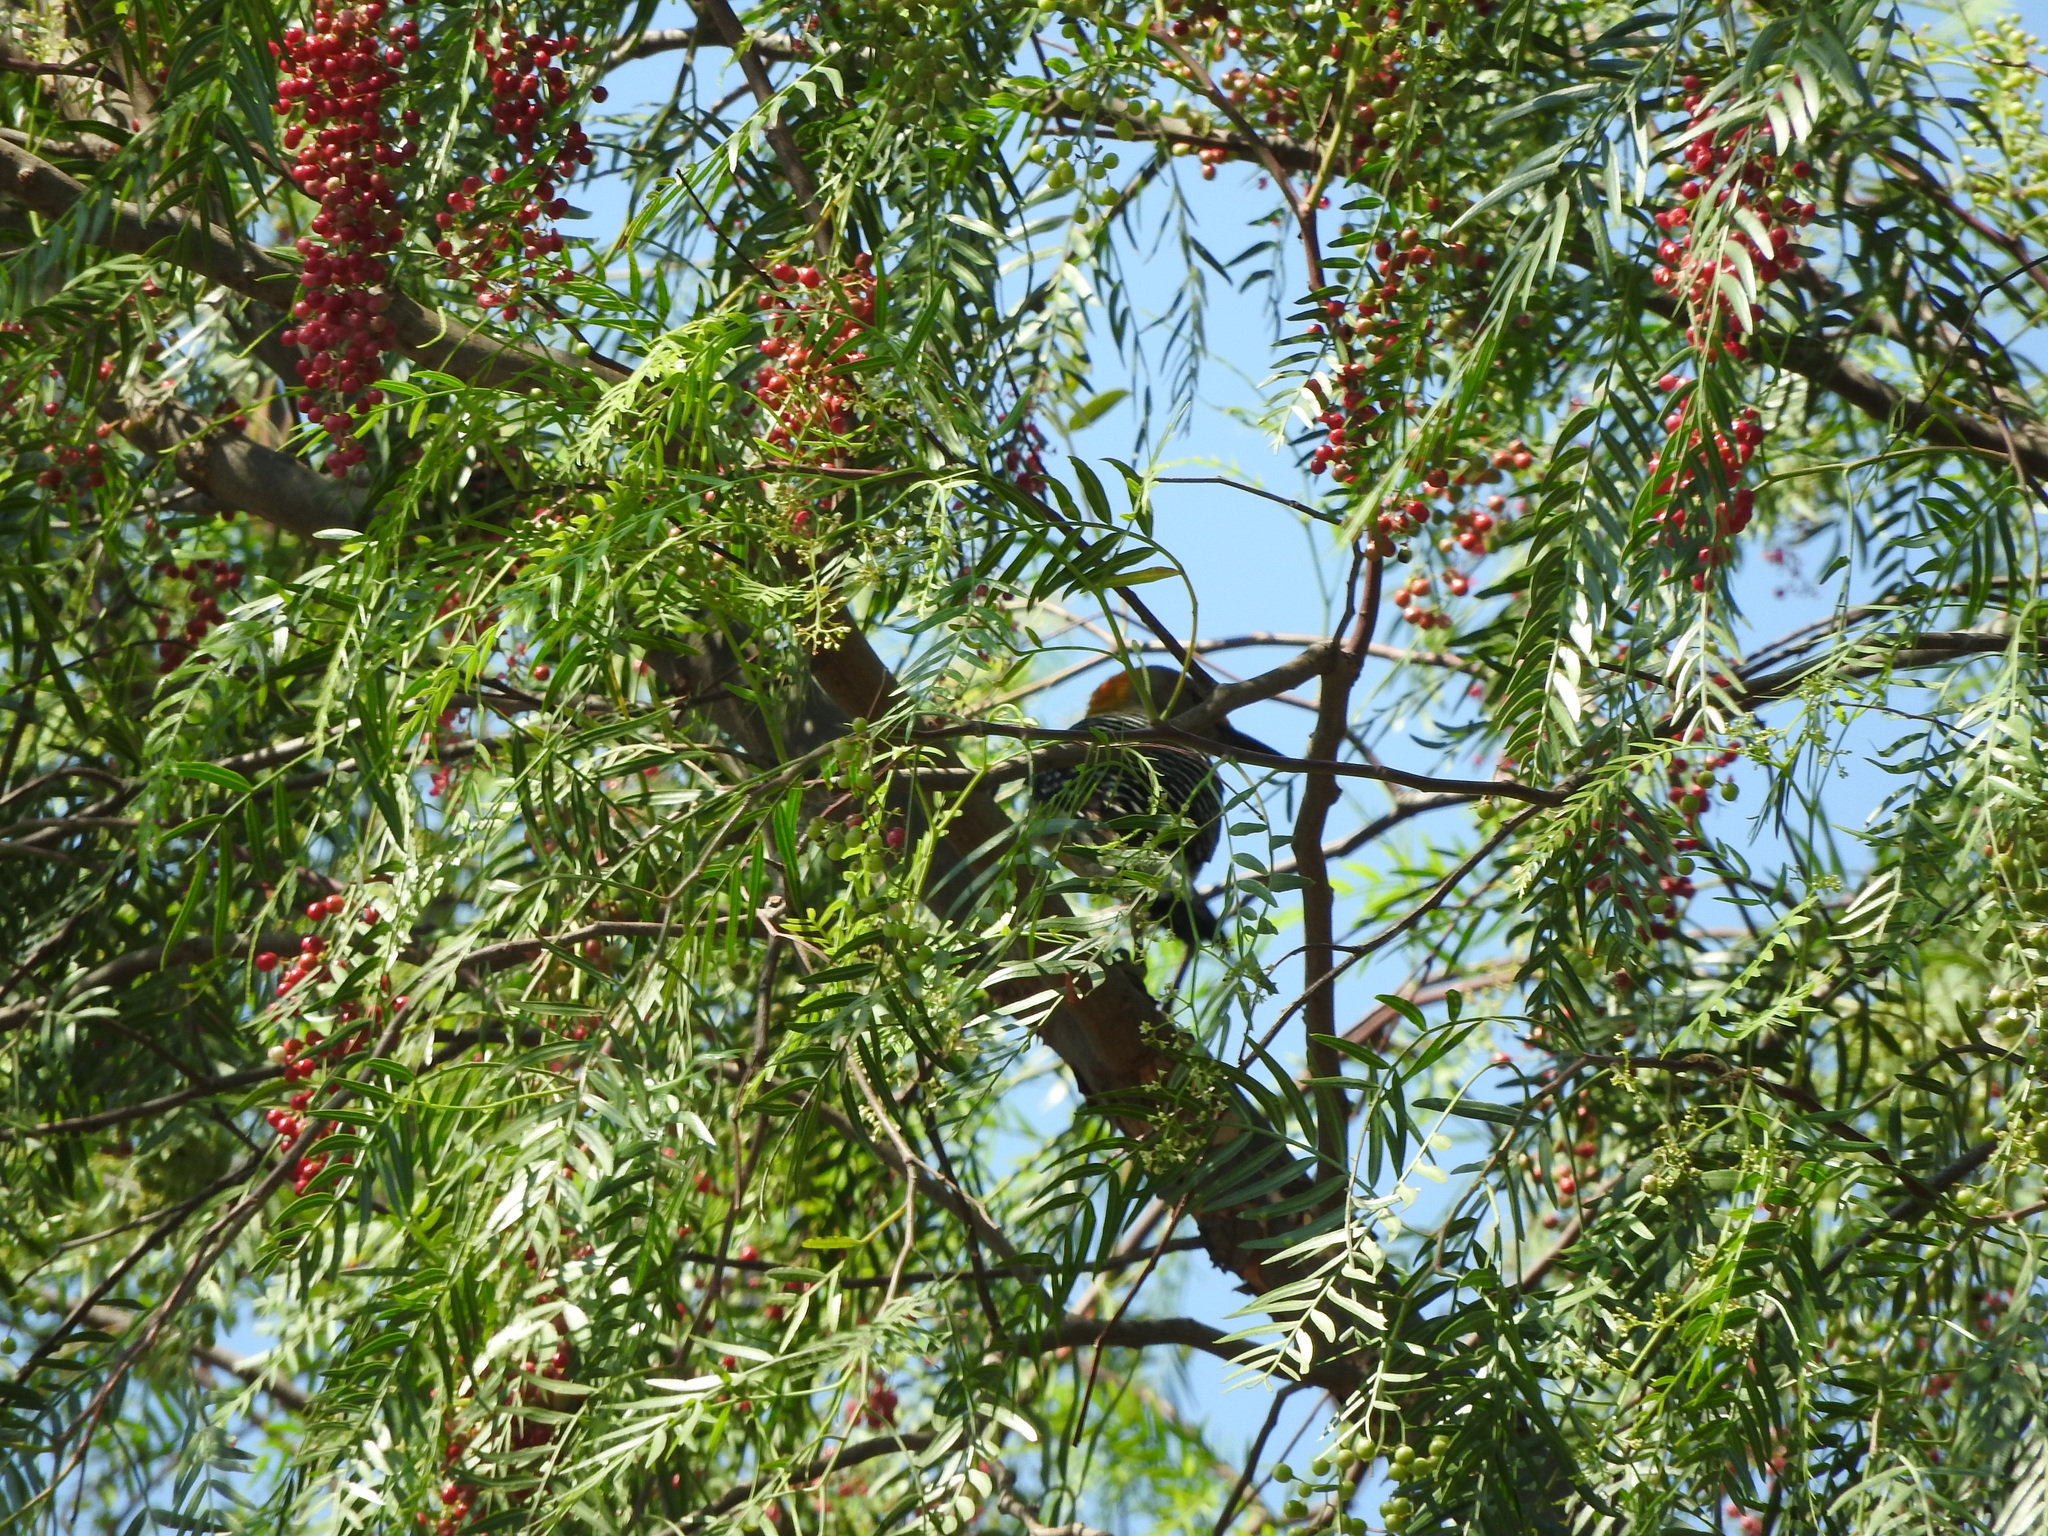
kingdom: Animalia
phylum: Chordata
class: Aves
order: Piciformes
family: Picidae
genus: Melanerpes
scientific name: Melanerpes aurifrons
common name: Golden-fronted woodpecker
